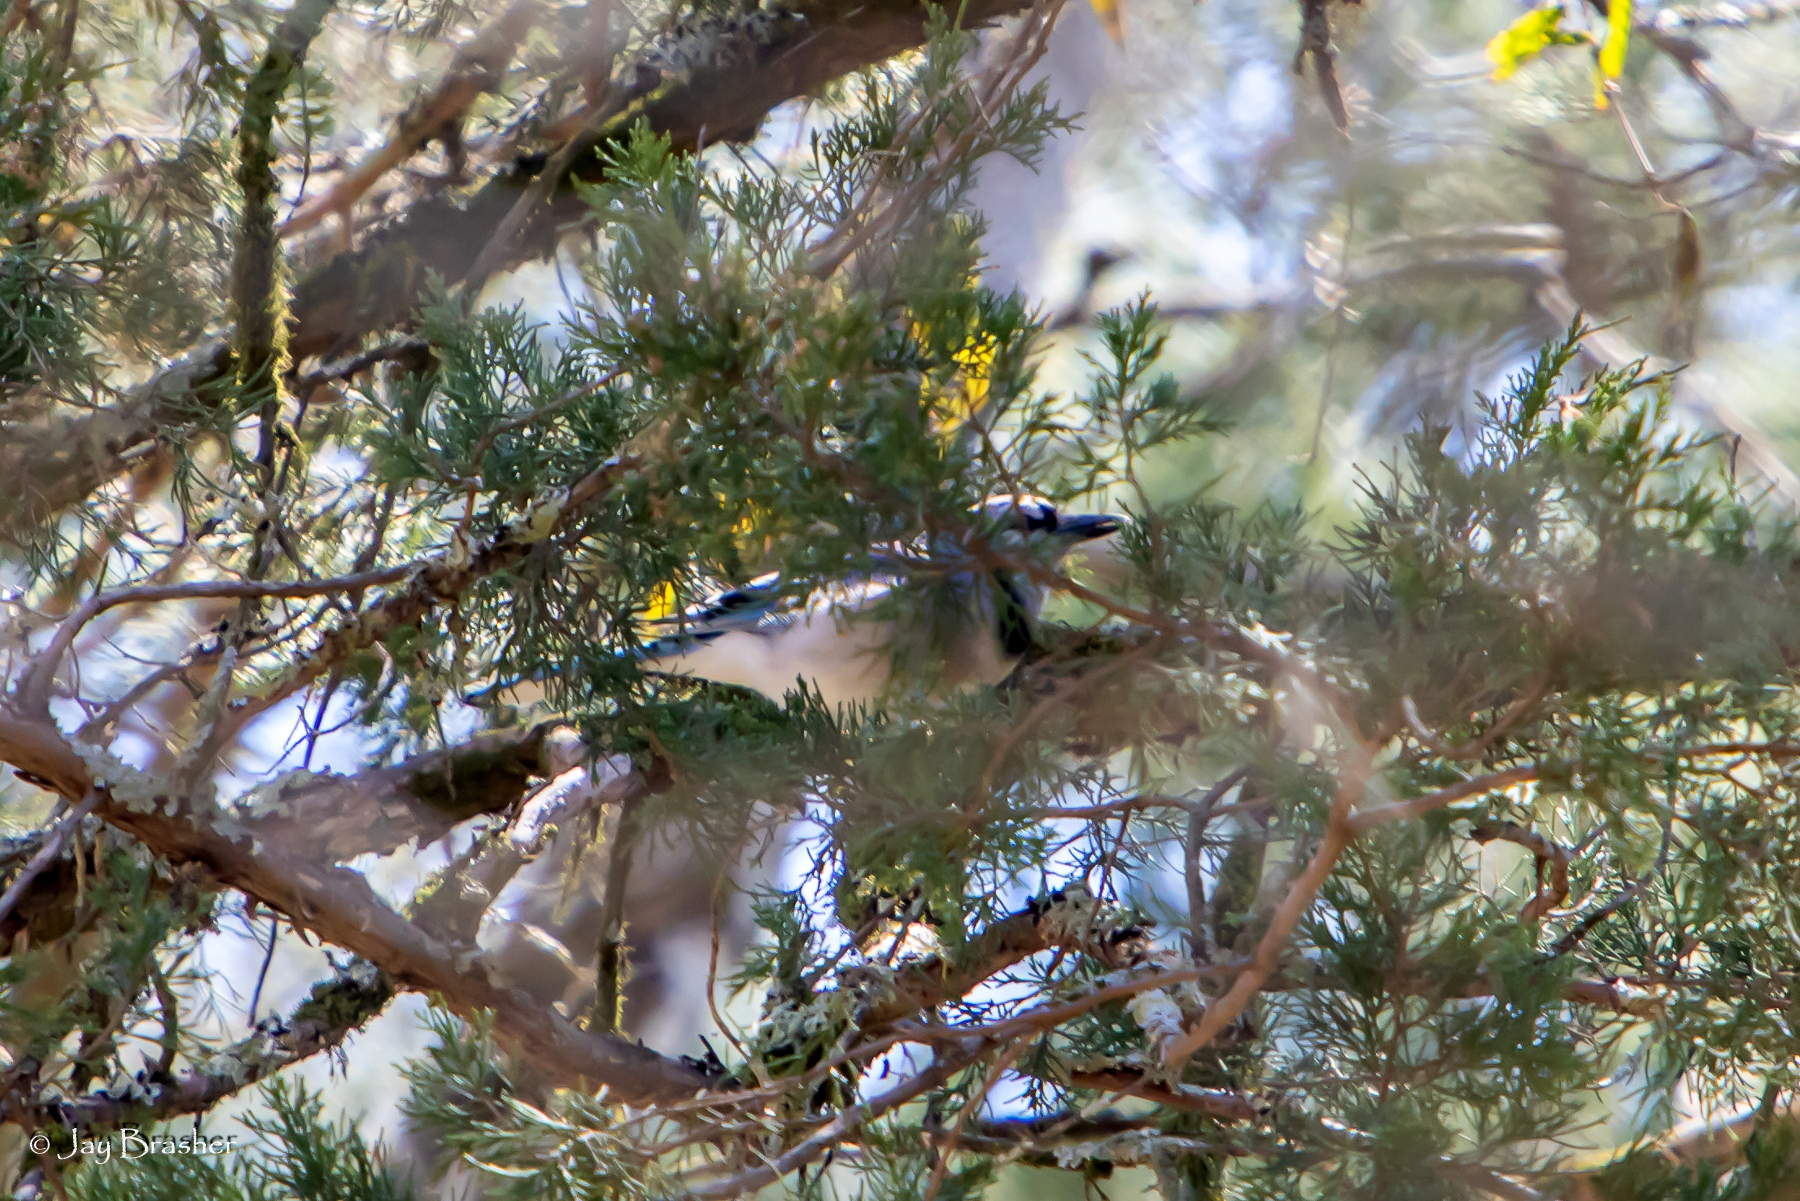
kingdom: Animalia
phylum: Chordata
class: Aves
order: Passeriformes
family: Corvidae
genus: Cyanocitta
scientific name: Cyanocitta cristata
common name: Blue jay
